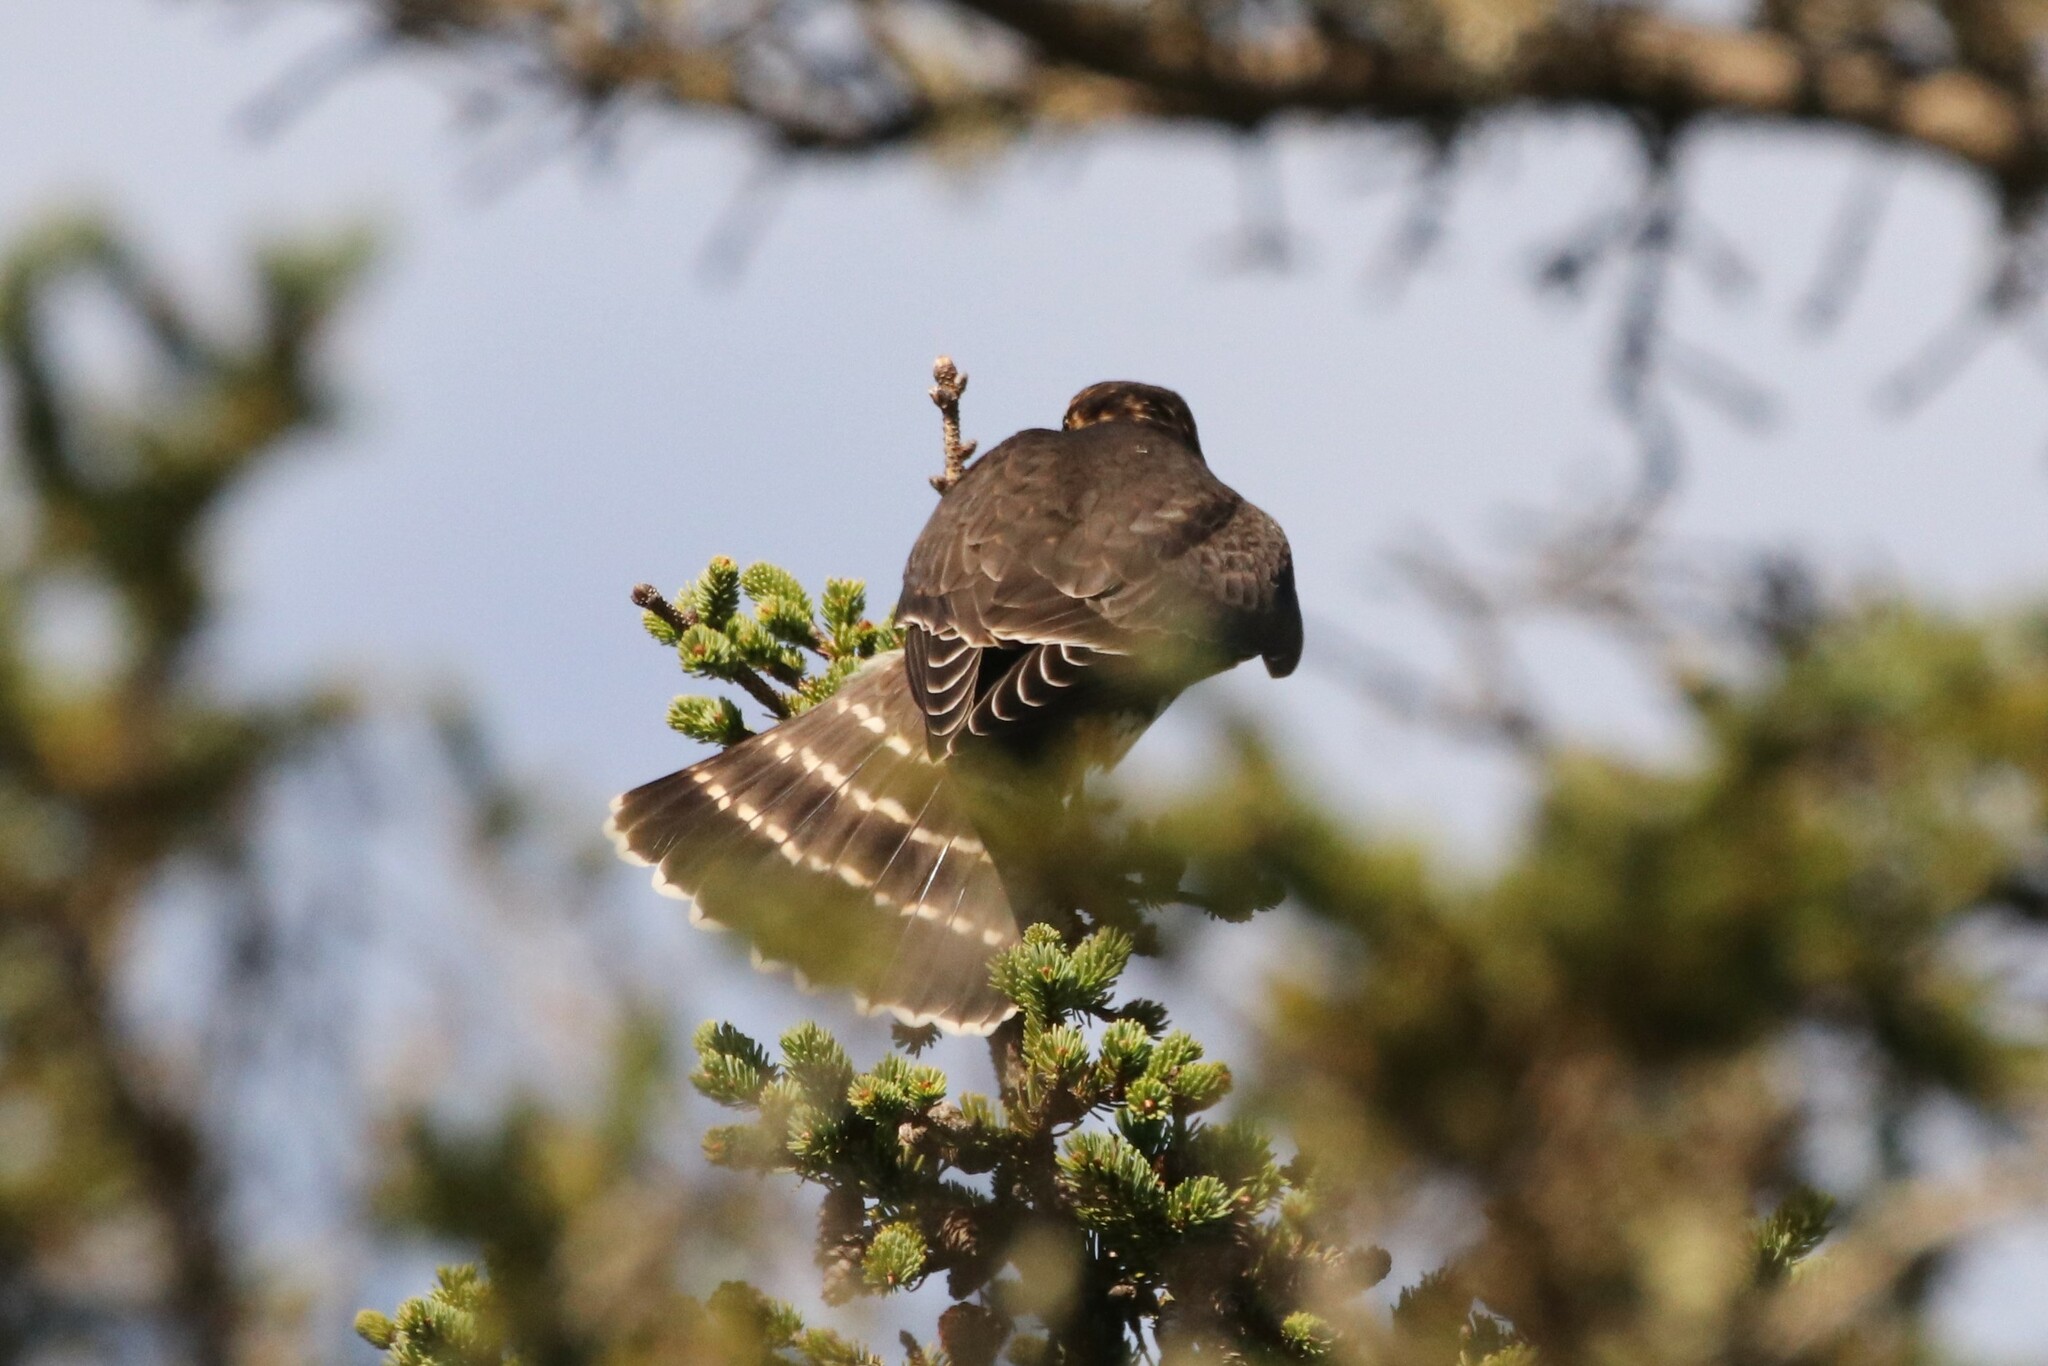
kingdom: Animalia
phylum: Chordata
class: Aves
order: Falconiformes
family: Falconidae
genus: Falco
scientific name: Falco columbarius
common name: Merlin
